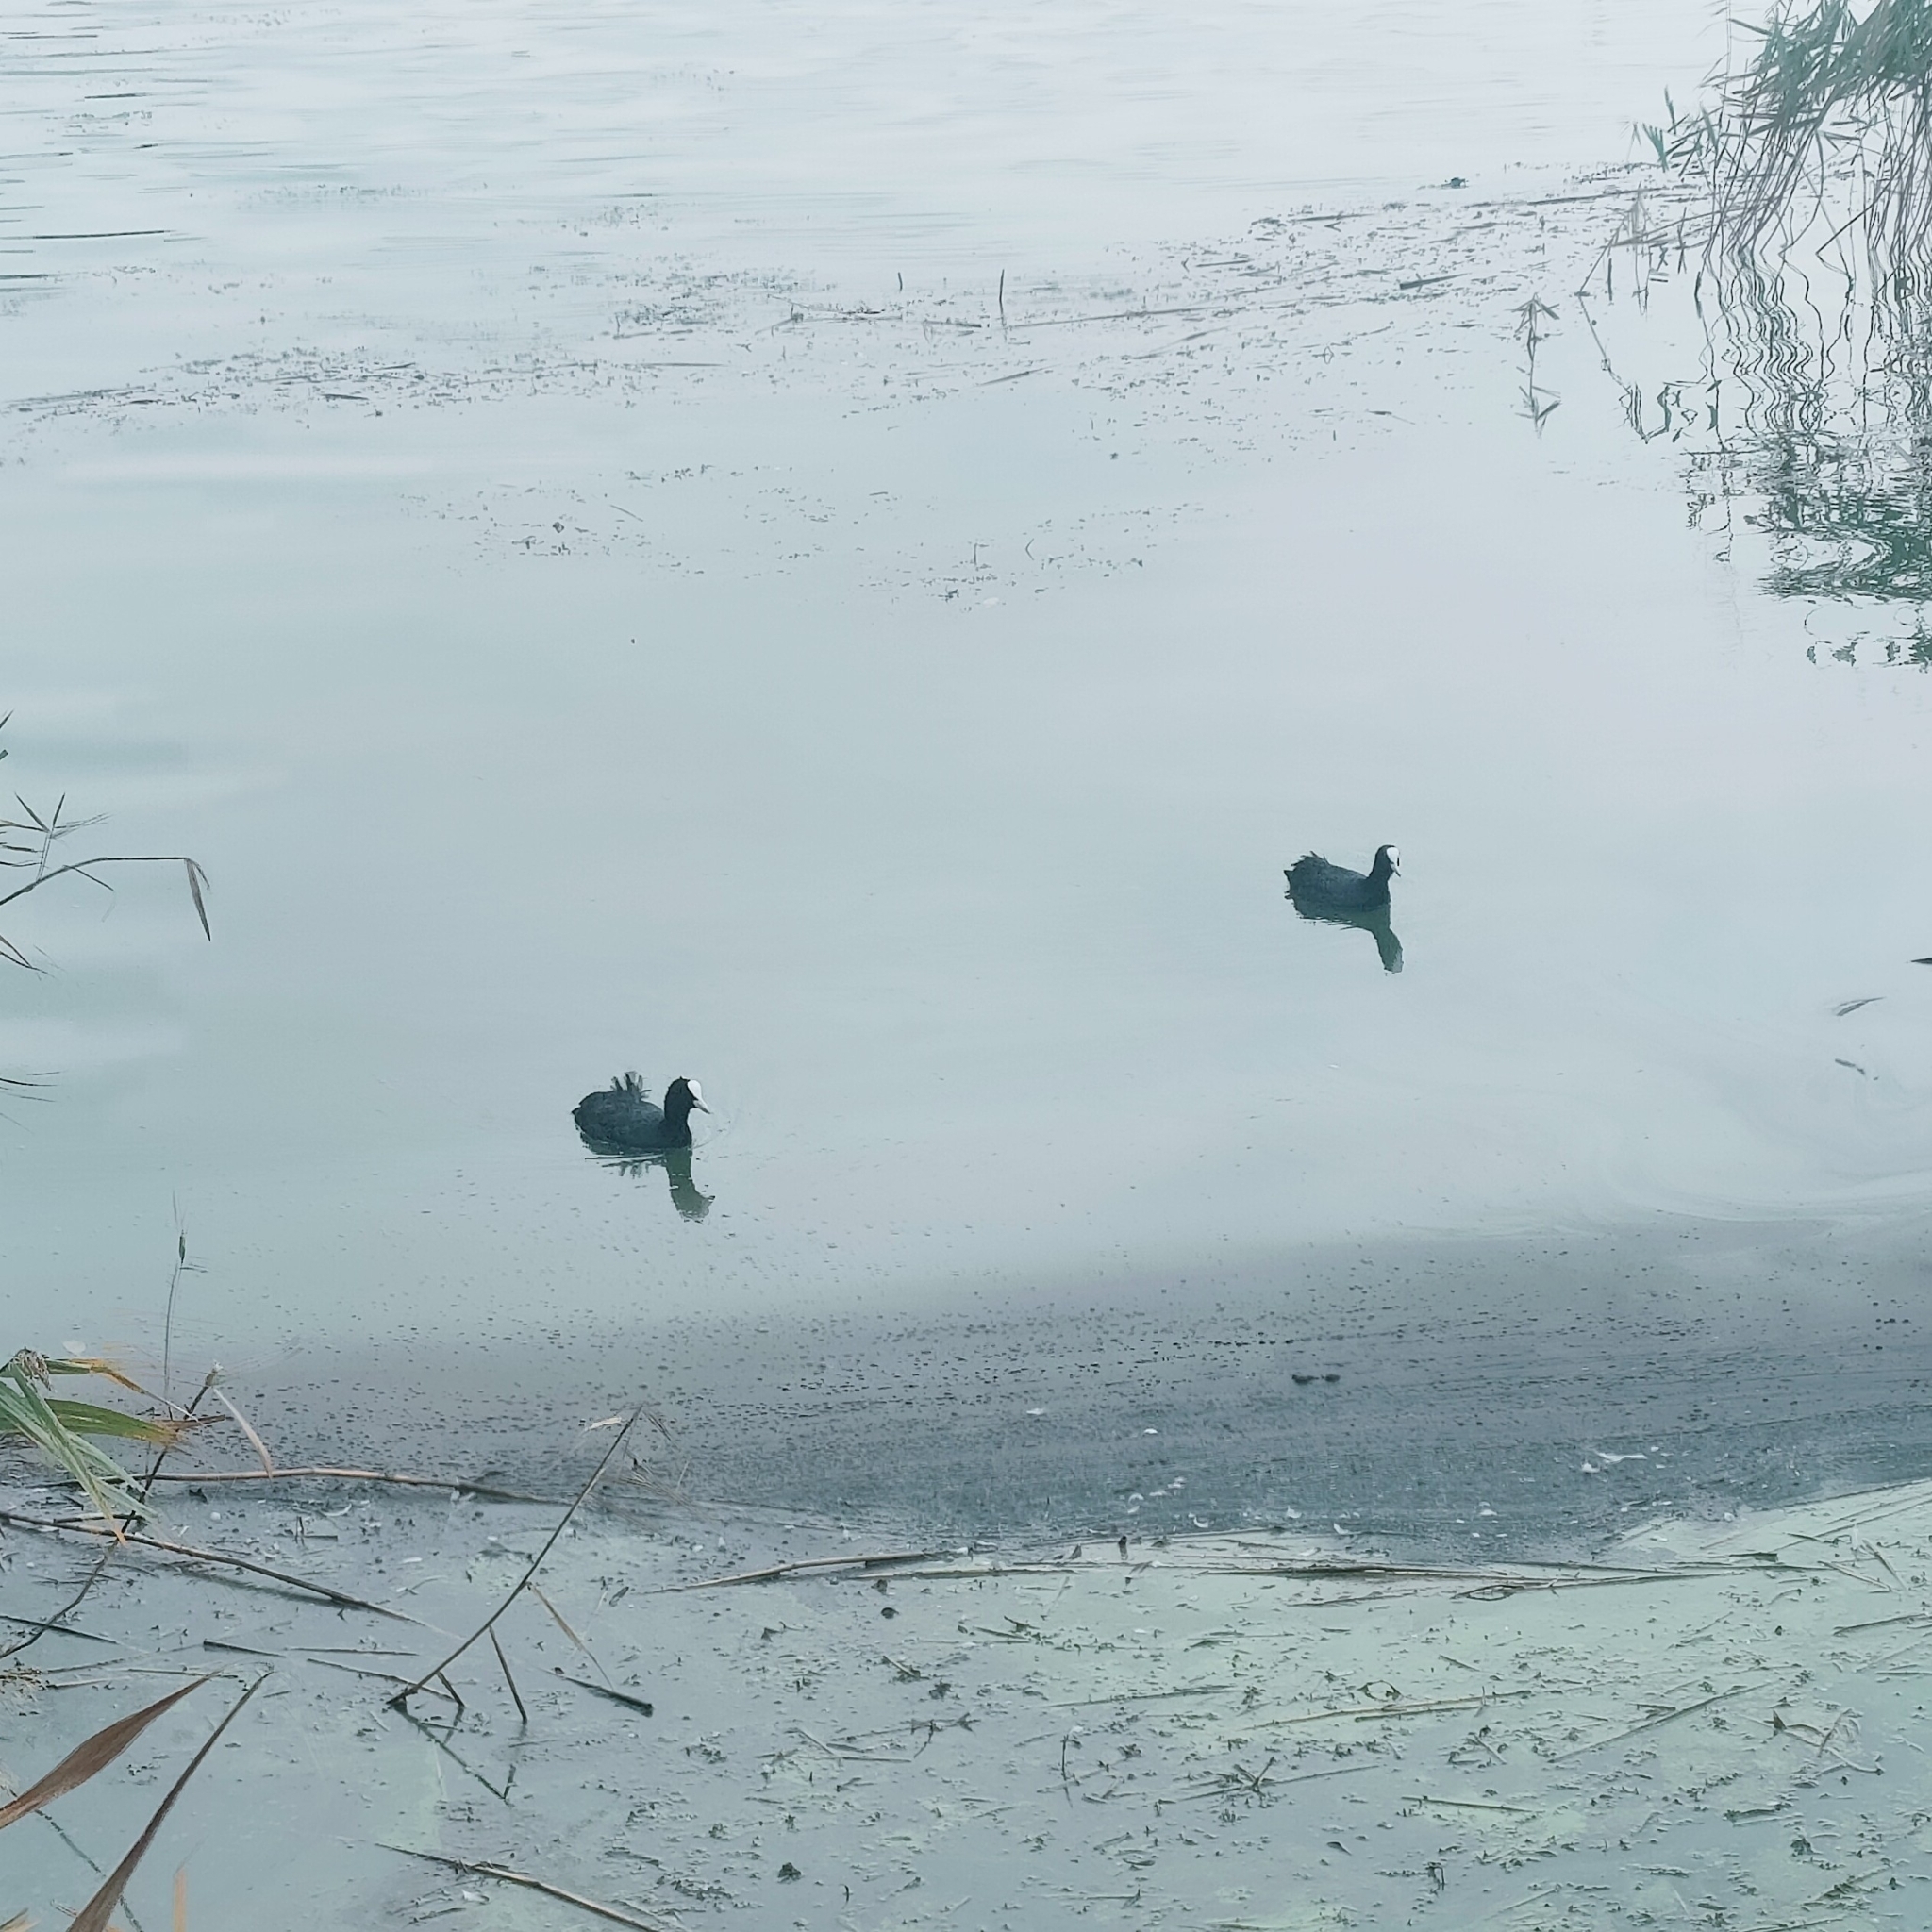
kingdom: Animalia
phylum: Chordata
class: Aves
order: Gruiformes
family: Rallidae
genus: Fulica
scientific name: Fulica atra
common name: Eurasian coot
